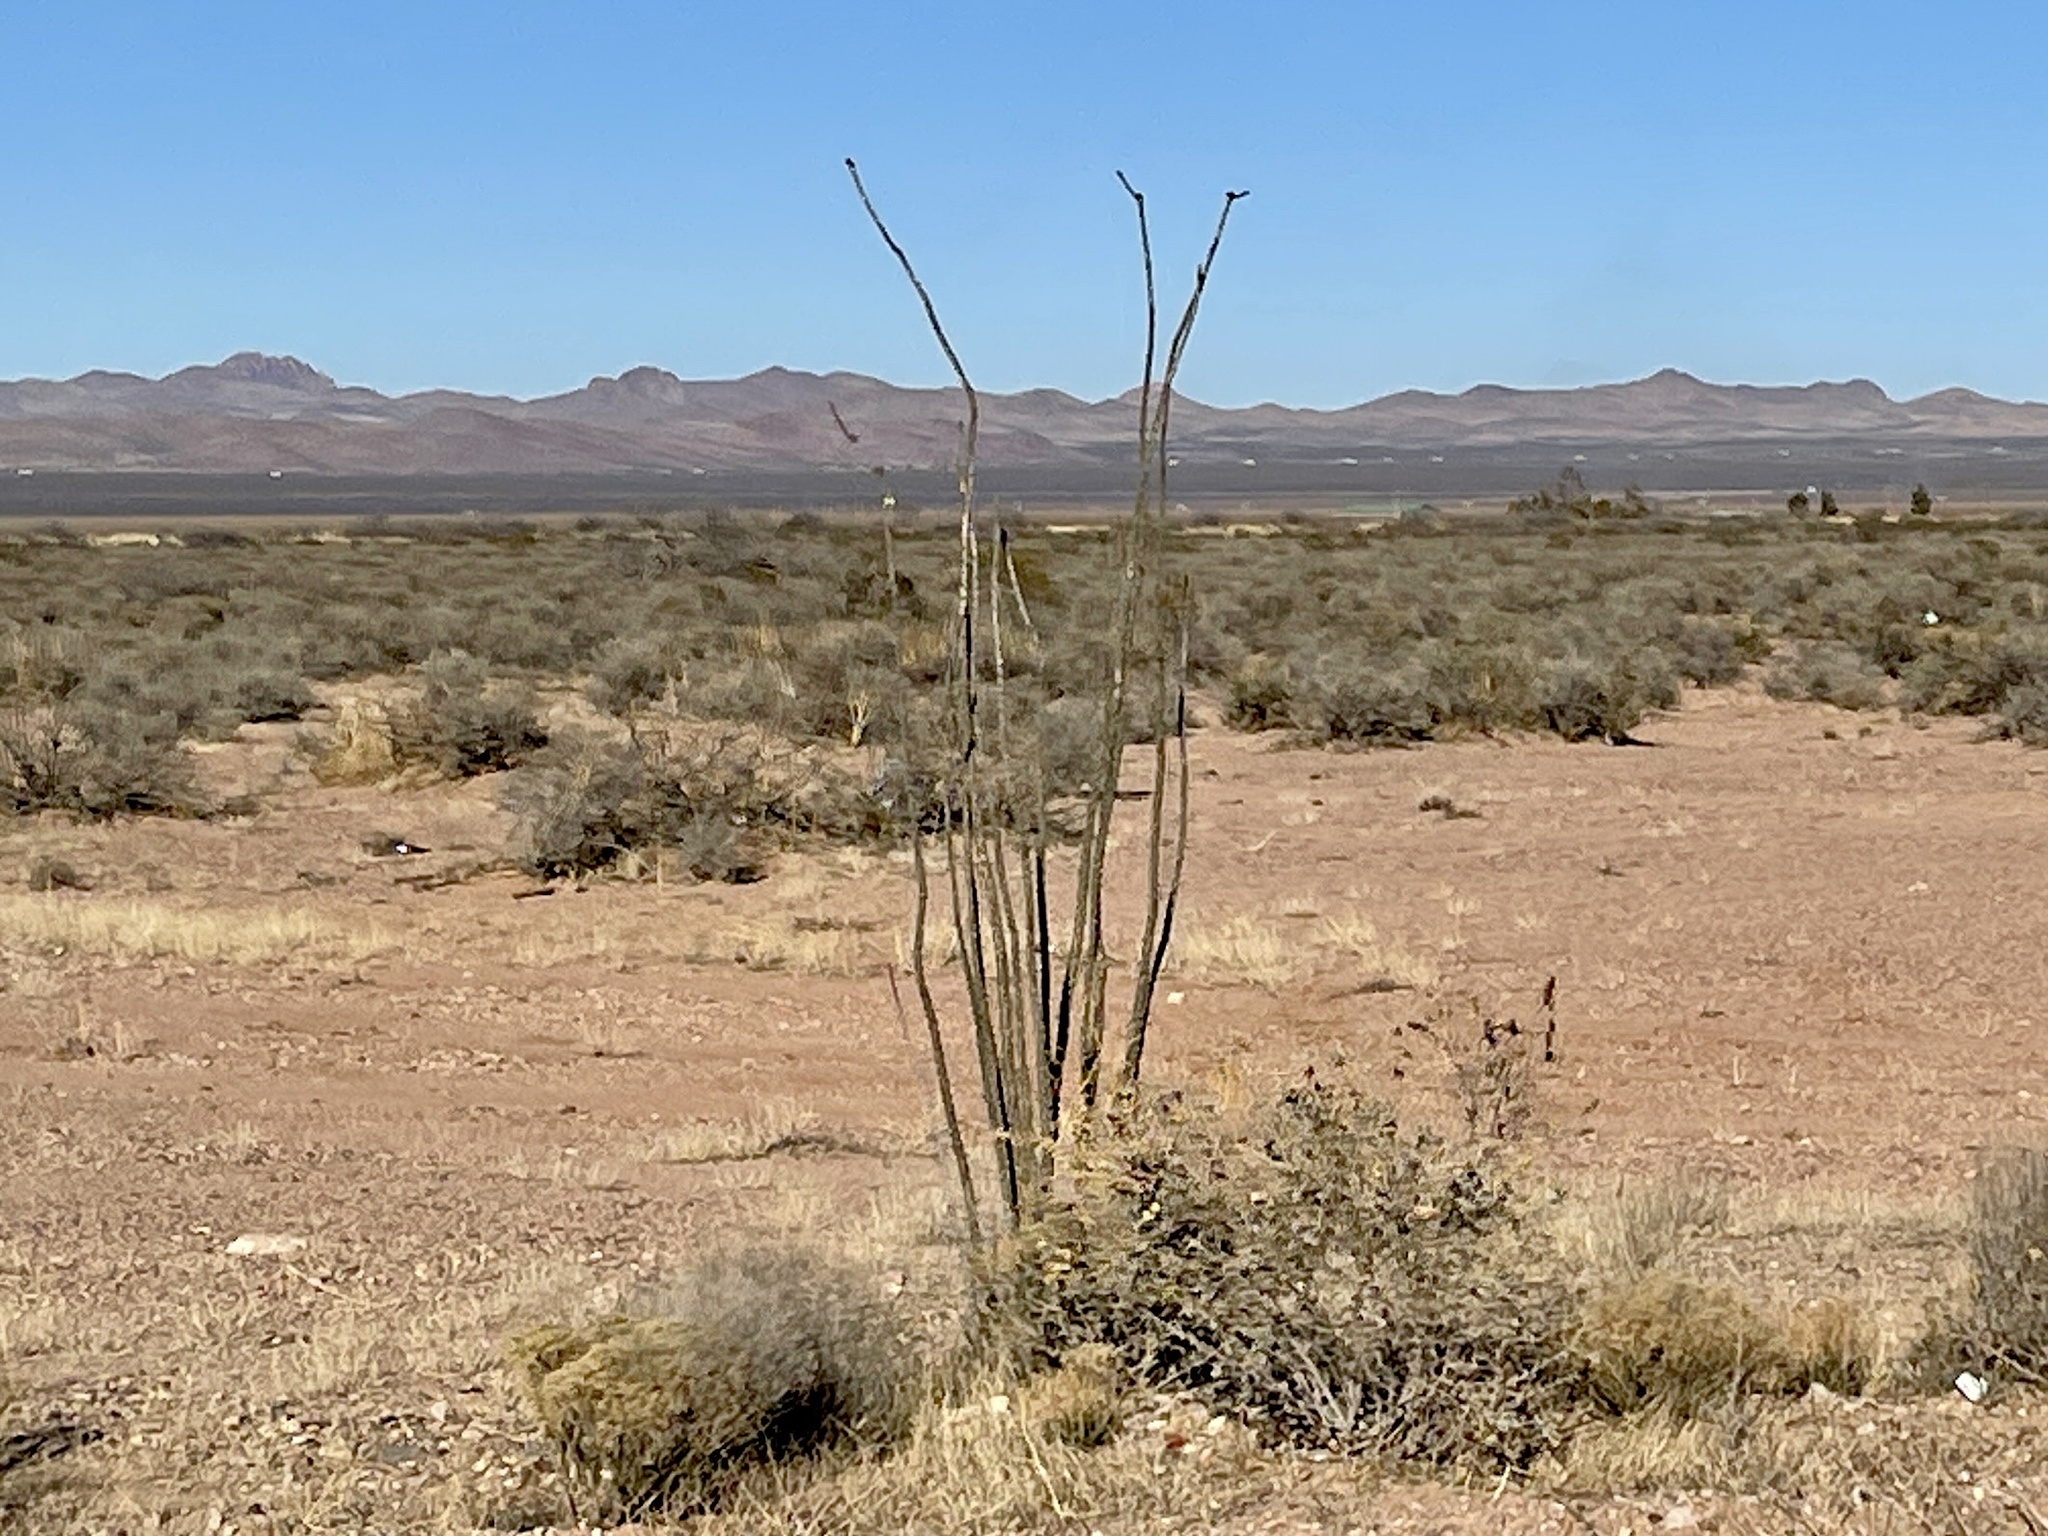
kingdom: Plantae
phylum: Tracheophyta
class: Magnoliopsida
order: Ericales
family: Fouquieriaceae
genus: Fouquieria
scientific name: Fouquieria splendens
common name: Vine-cactus
